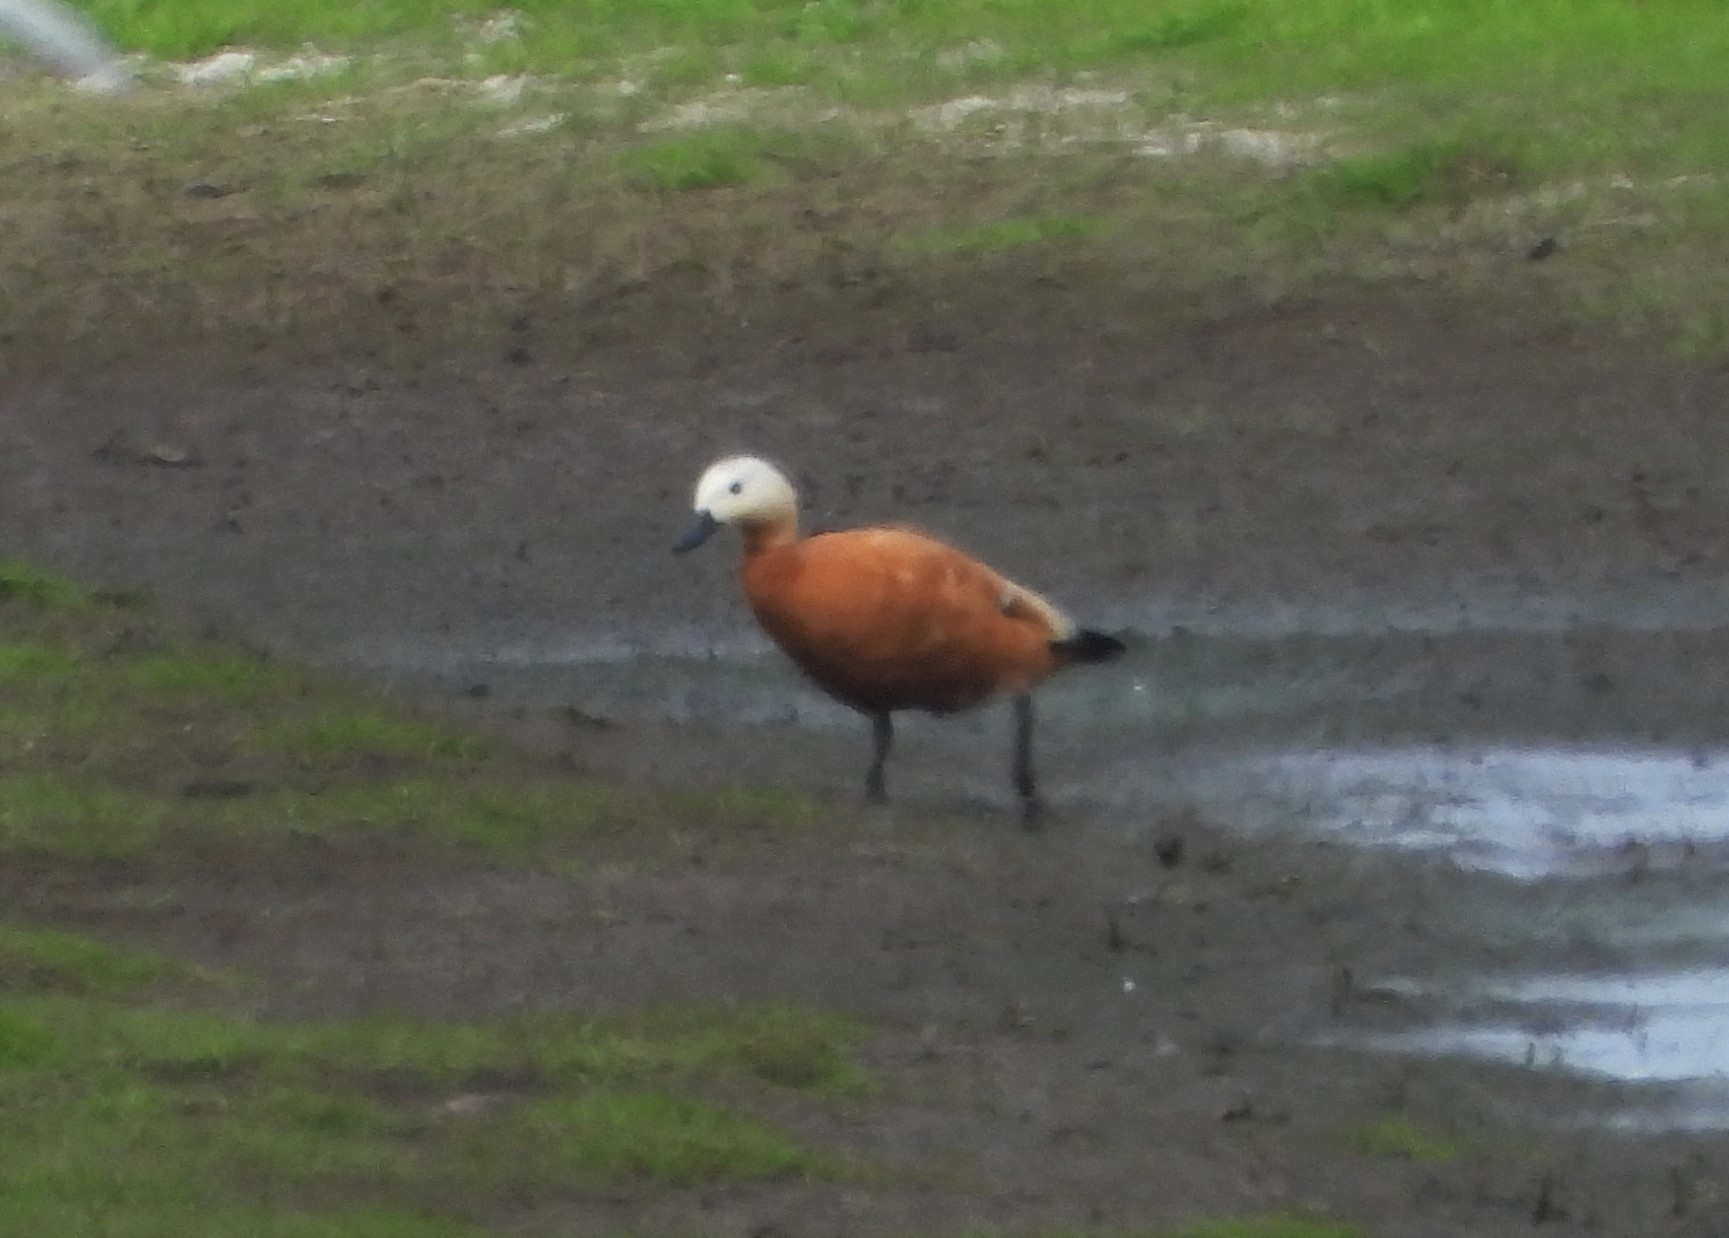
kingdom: Animalia
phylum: Chordata
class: Aves
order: Anseriformes
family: Anatidae
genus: Tadorna
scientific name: Tadorna ferruginea
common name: Ruddy shelduck
